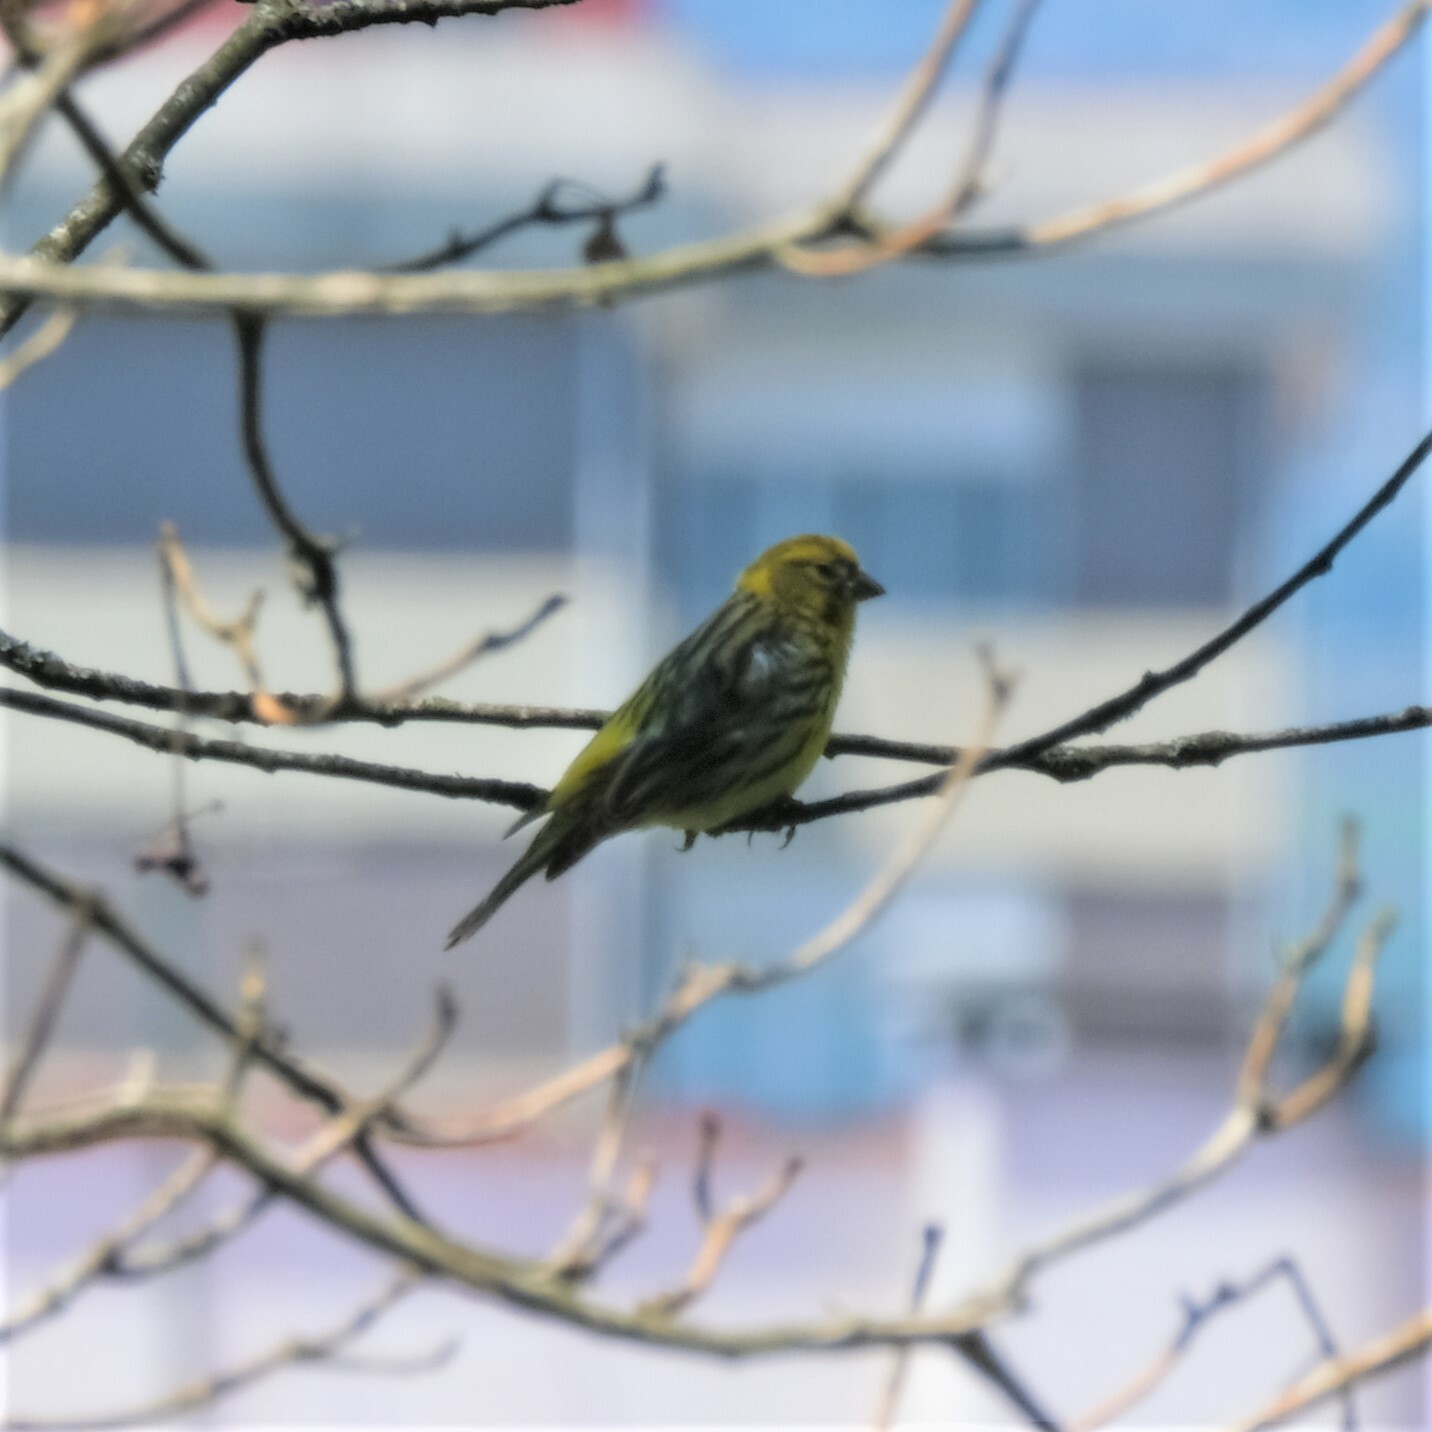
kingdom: Animalia
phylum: Chordata
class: Aves
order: Passeriformes
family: Fringillidae
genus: Serinus
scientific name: Serinus serinus
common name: European serin
